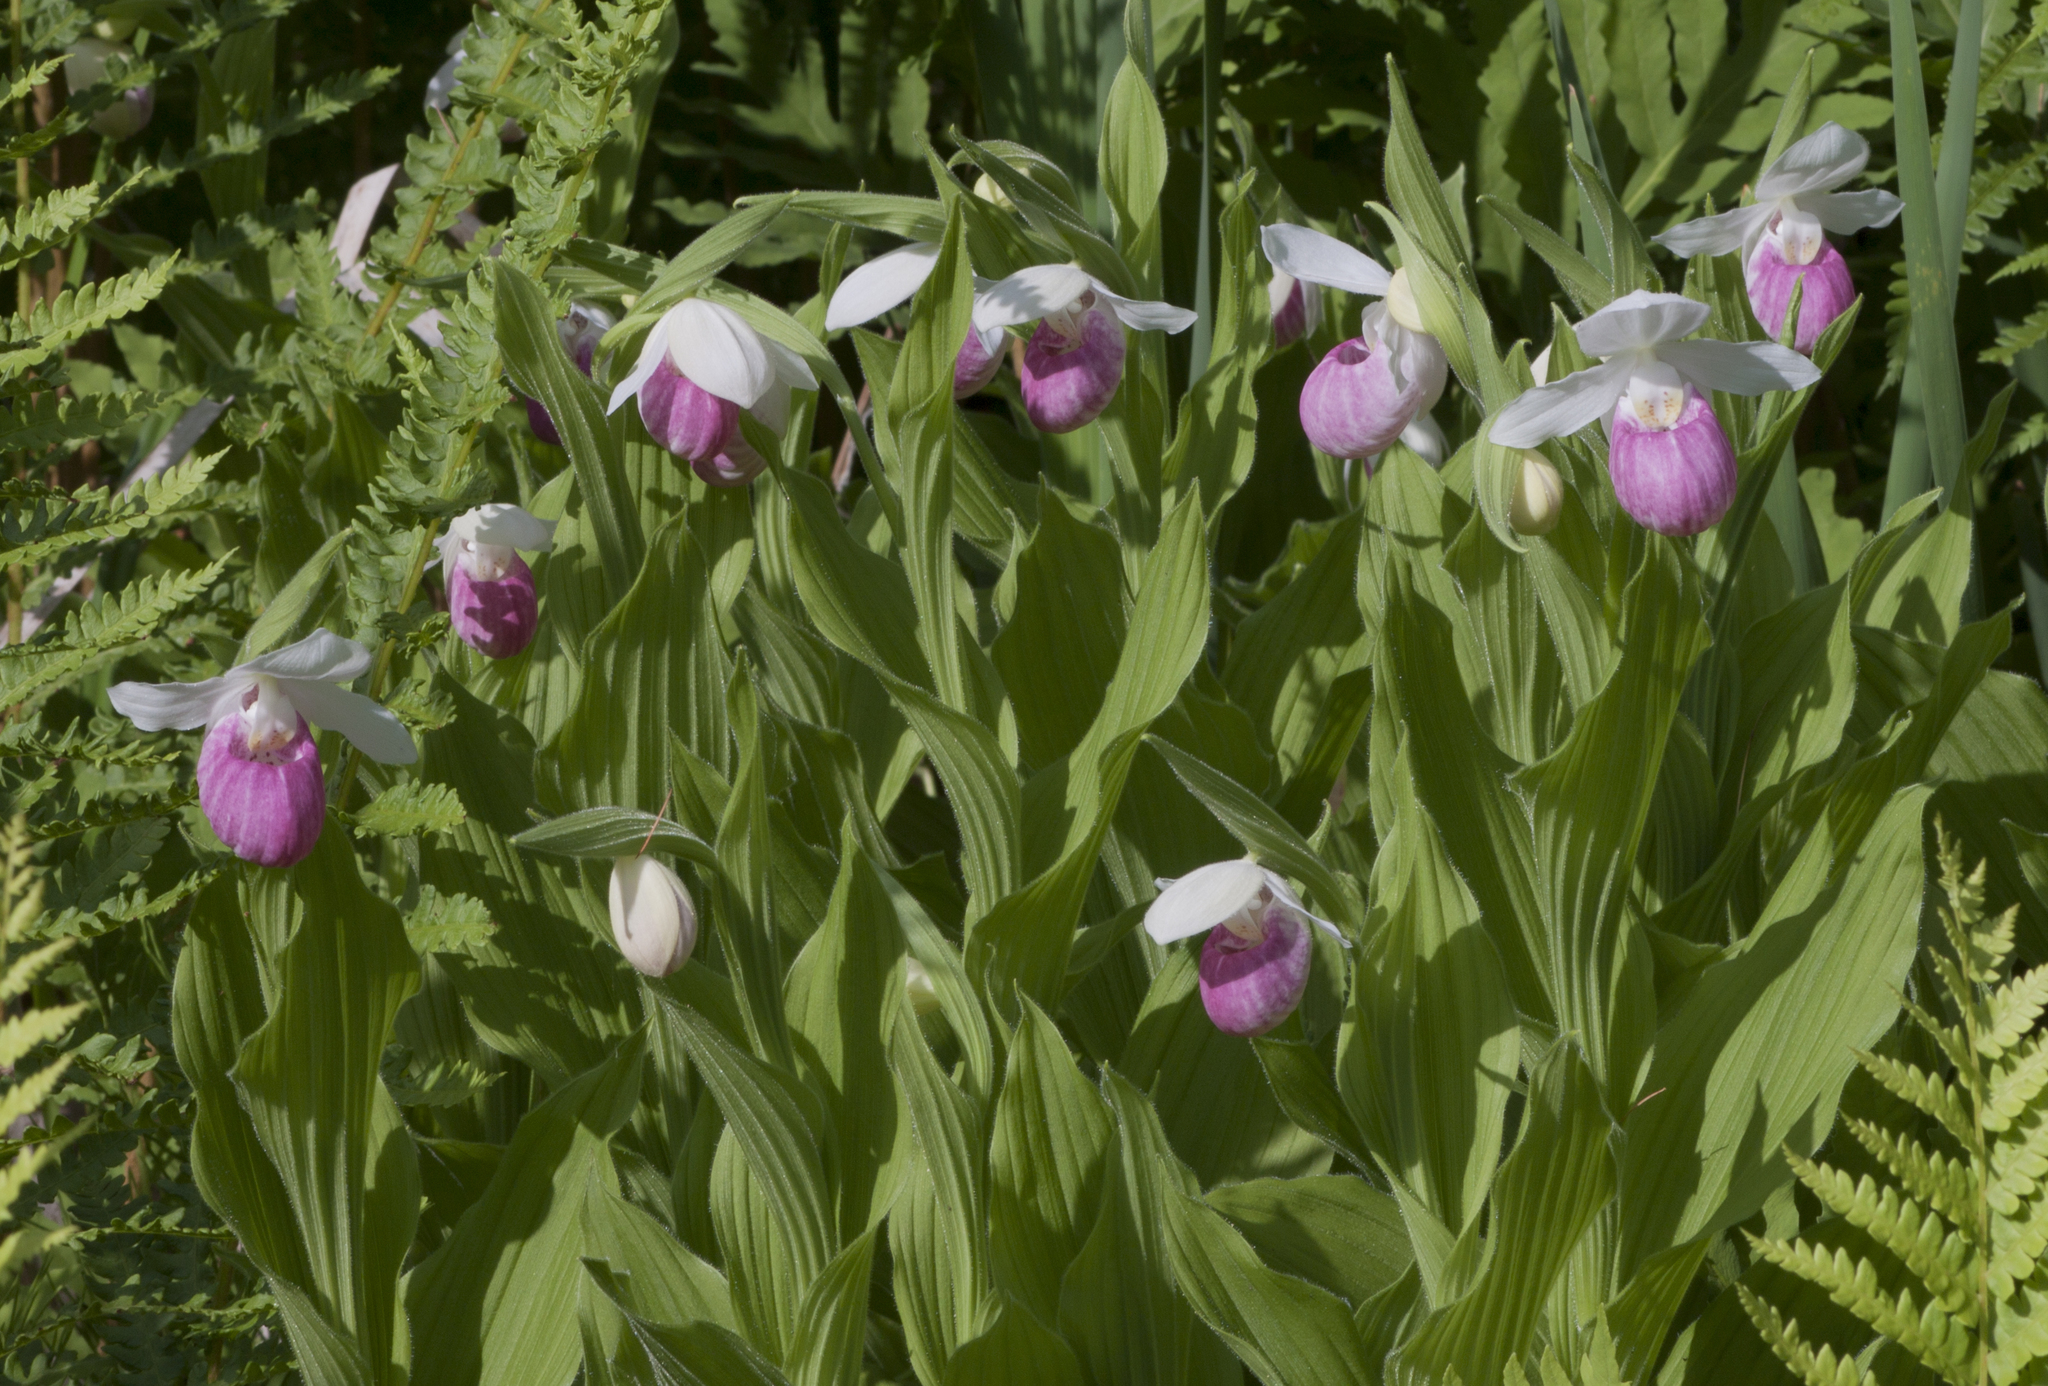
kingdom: Plantae
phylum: Tracheophyta
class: Liliopsida
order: Asparagales
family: Orchidaceae
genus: Cypripedium
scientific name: Cypripedium reginae
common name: Queen lady's-slipper
